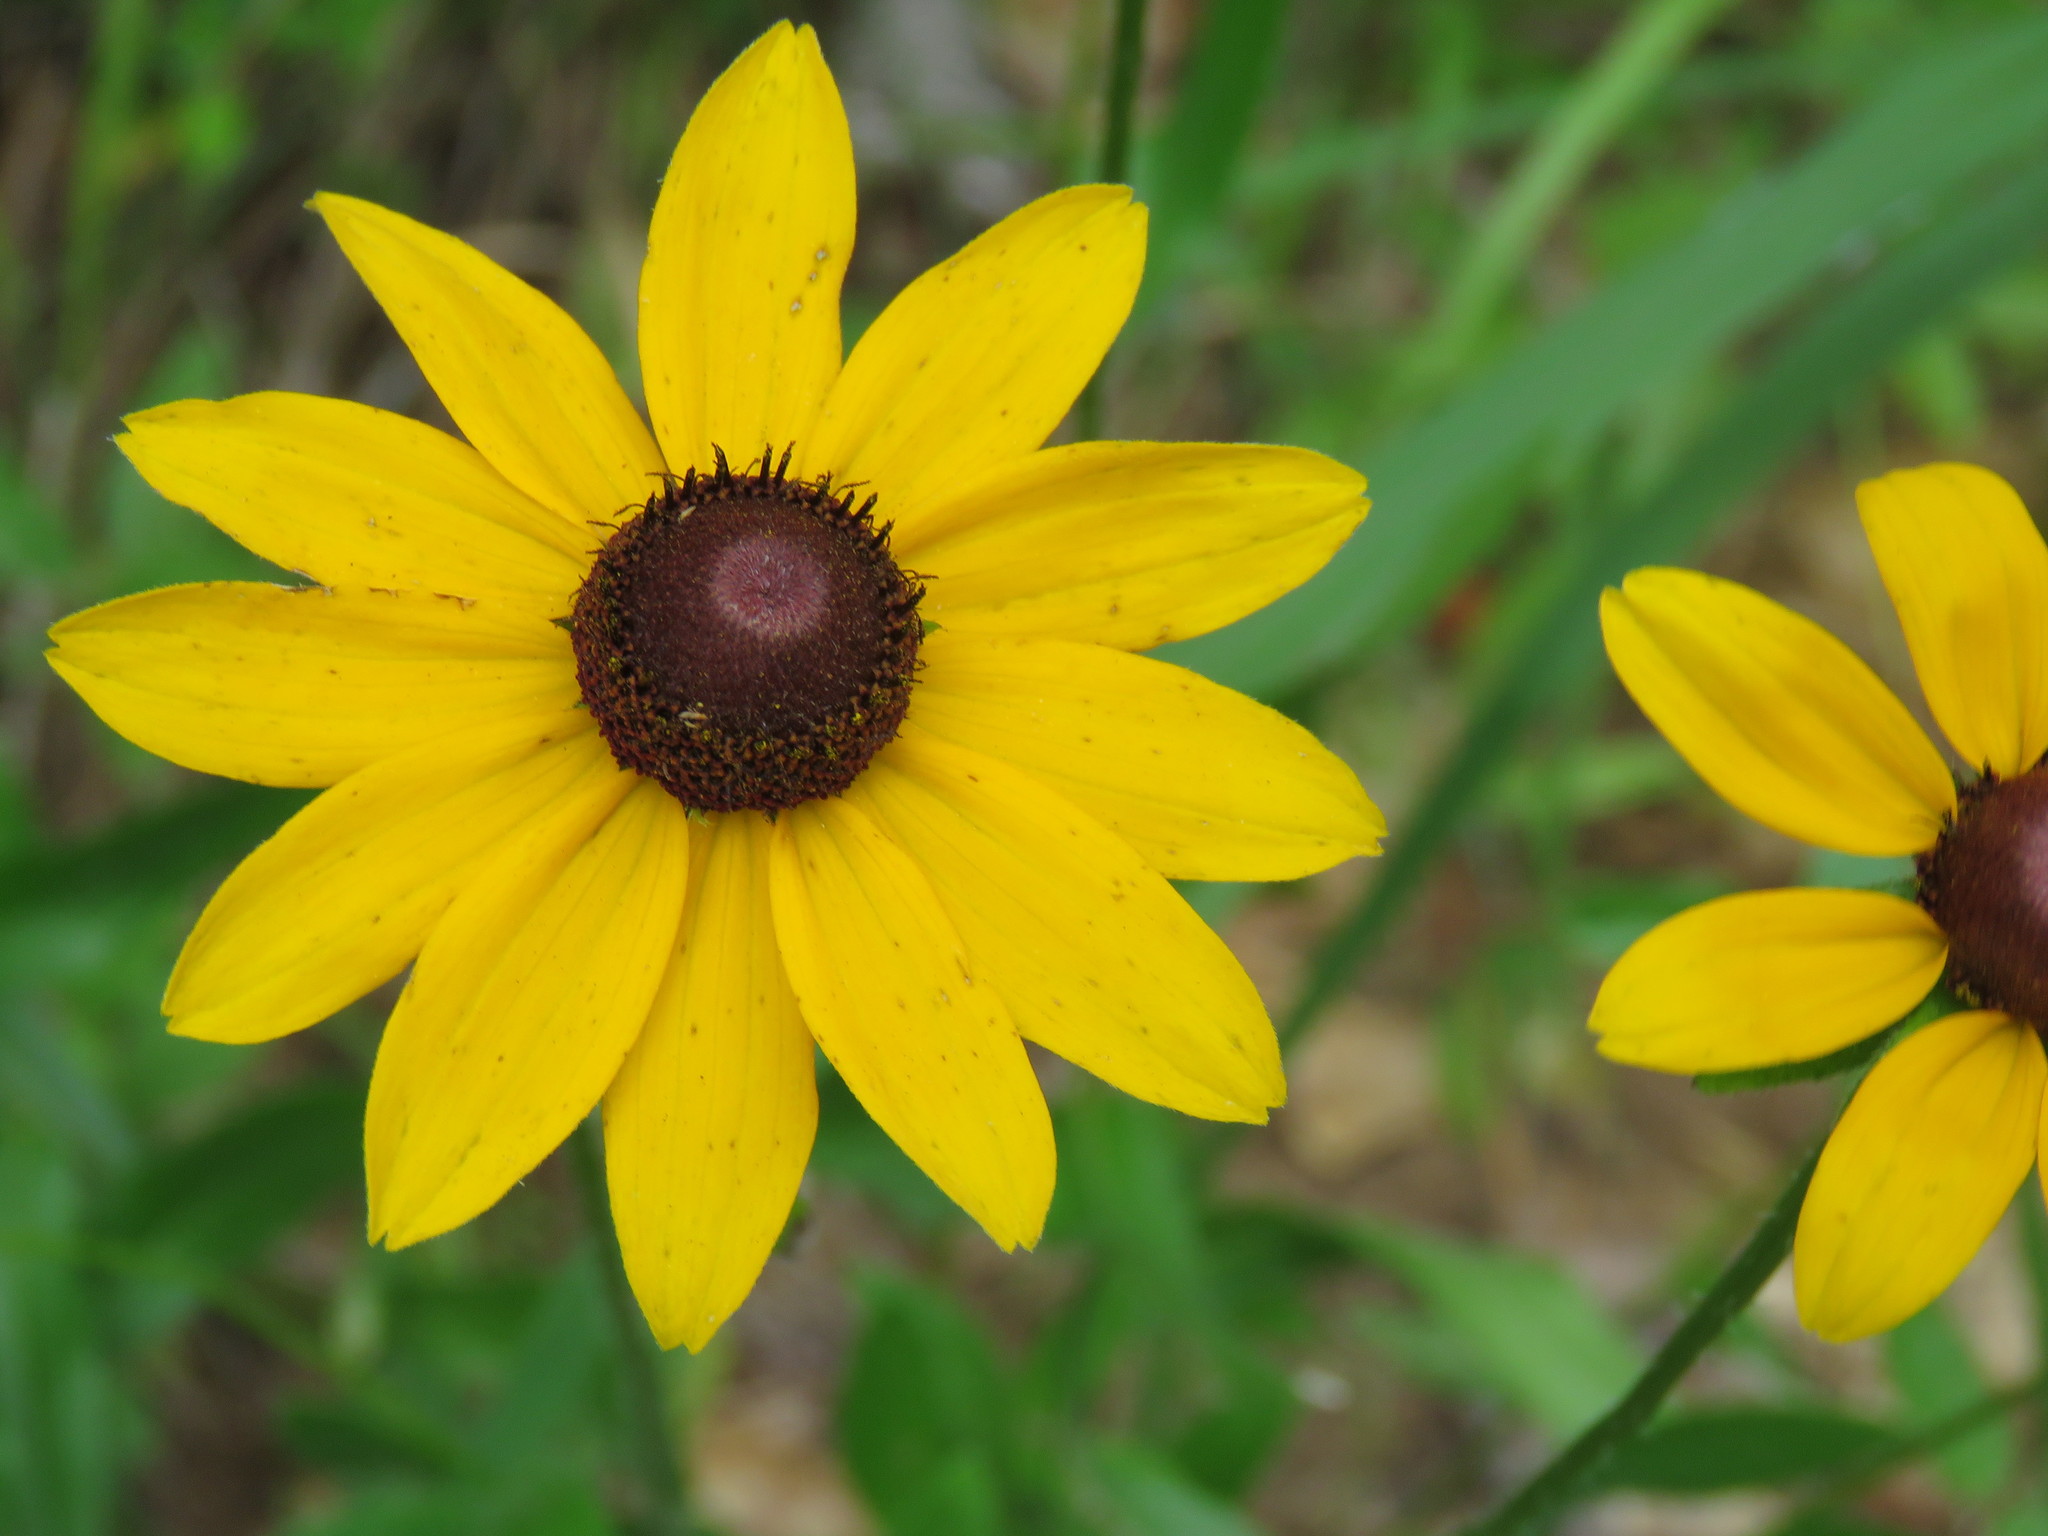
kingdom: Plantae
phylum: Tracheophyta
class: Magnoliopsida
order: Asterales
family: Asteraceae
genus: Rudbeckia
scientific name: Rudbeckia hirta
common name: Black-eyed-susan
